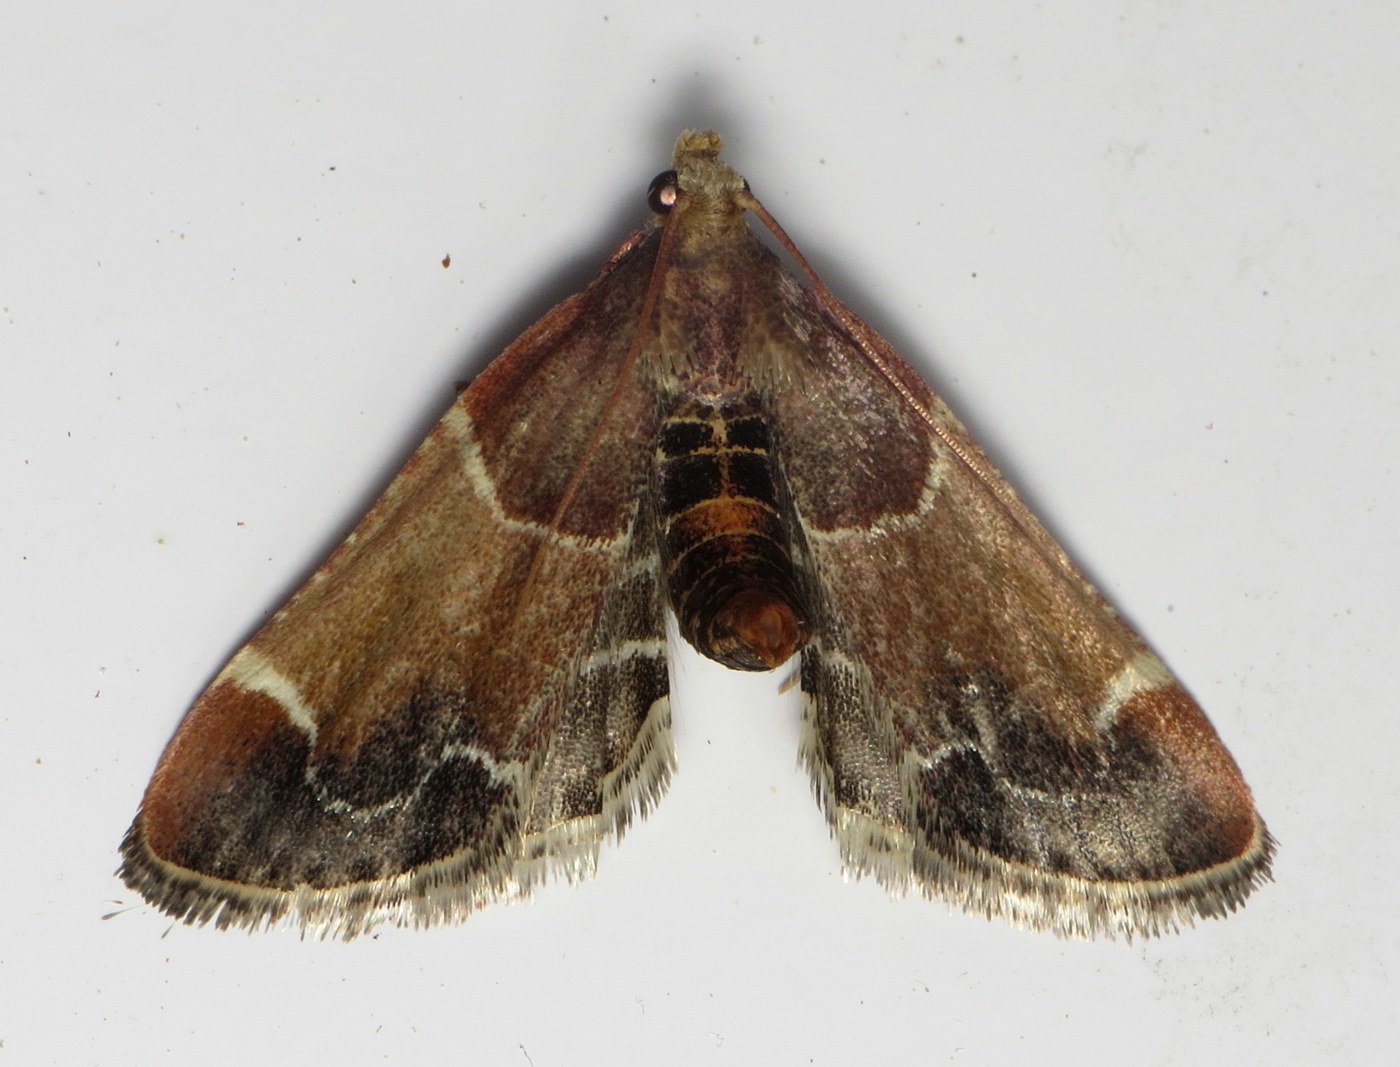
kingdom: Animalia
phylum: Arthropoda
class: Insecta
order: Lepidoptera
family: Pyralidae
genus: Pyralis
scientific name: Pyralis farinalis
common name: Meal moth
